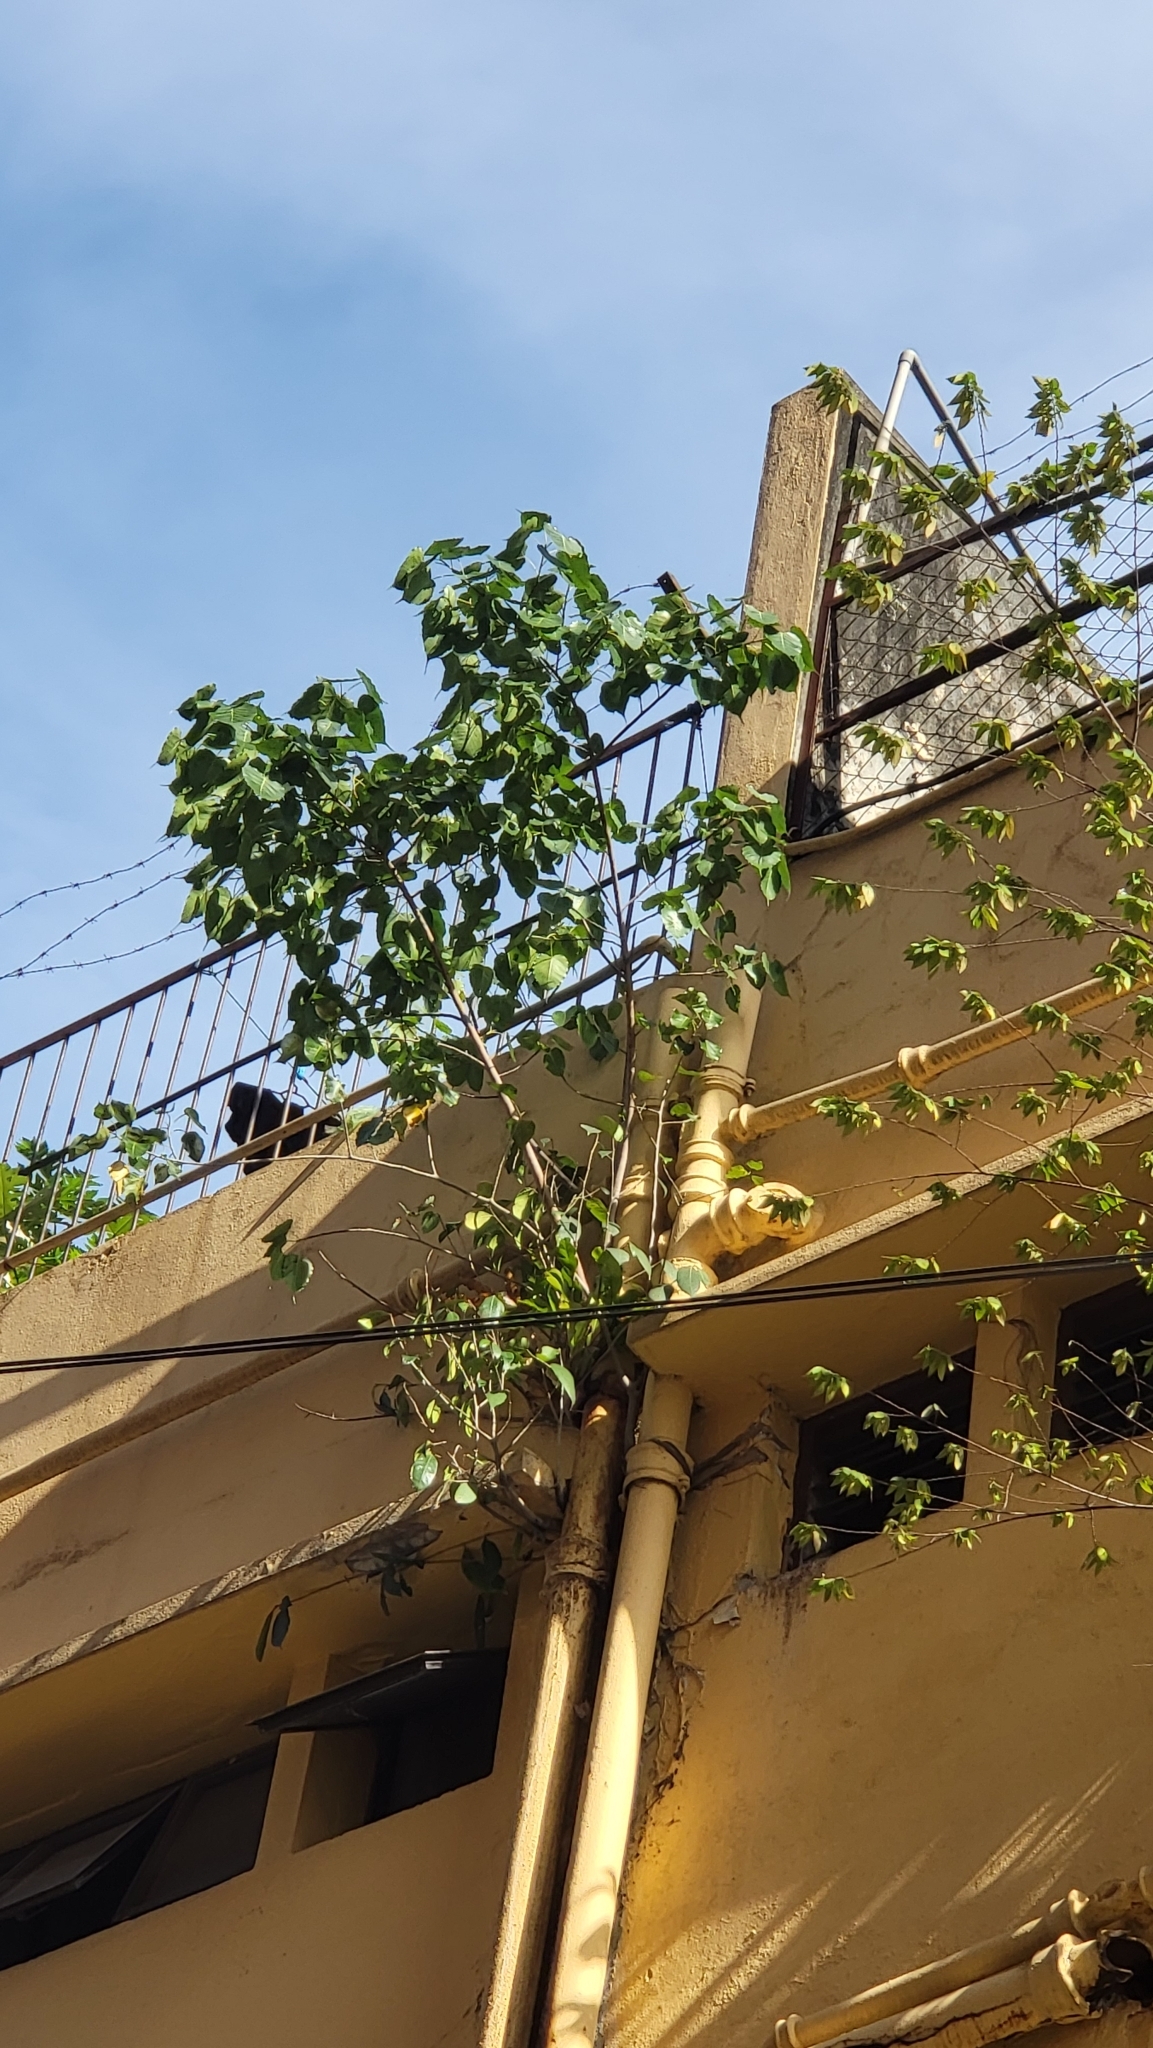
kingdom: Plantae
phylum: Tracheophyta
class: Magnoliopsida
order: Rosales
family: Moraceae
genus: Ficus
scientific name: Ficus religiosa
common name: Bodhi tree
